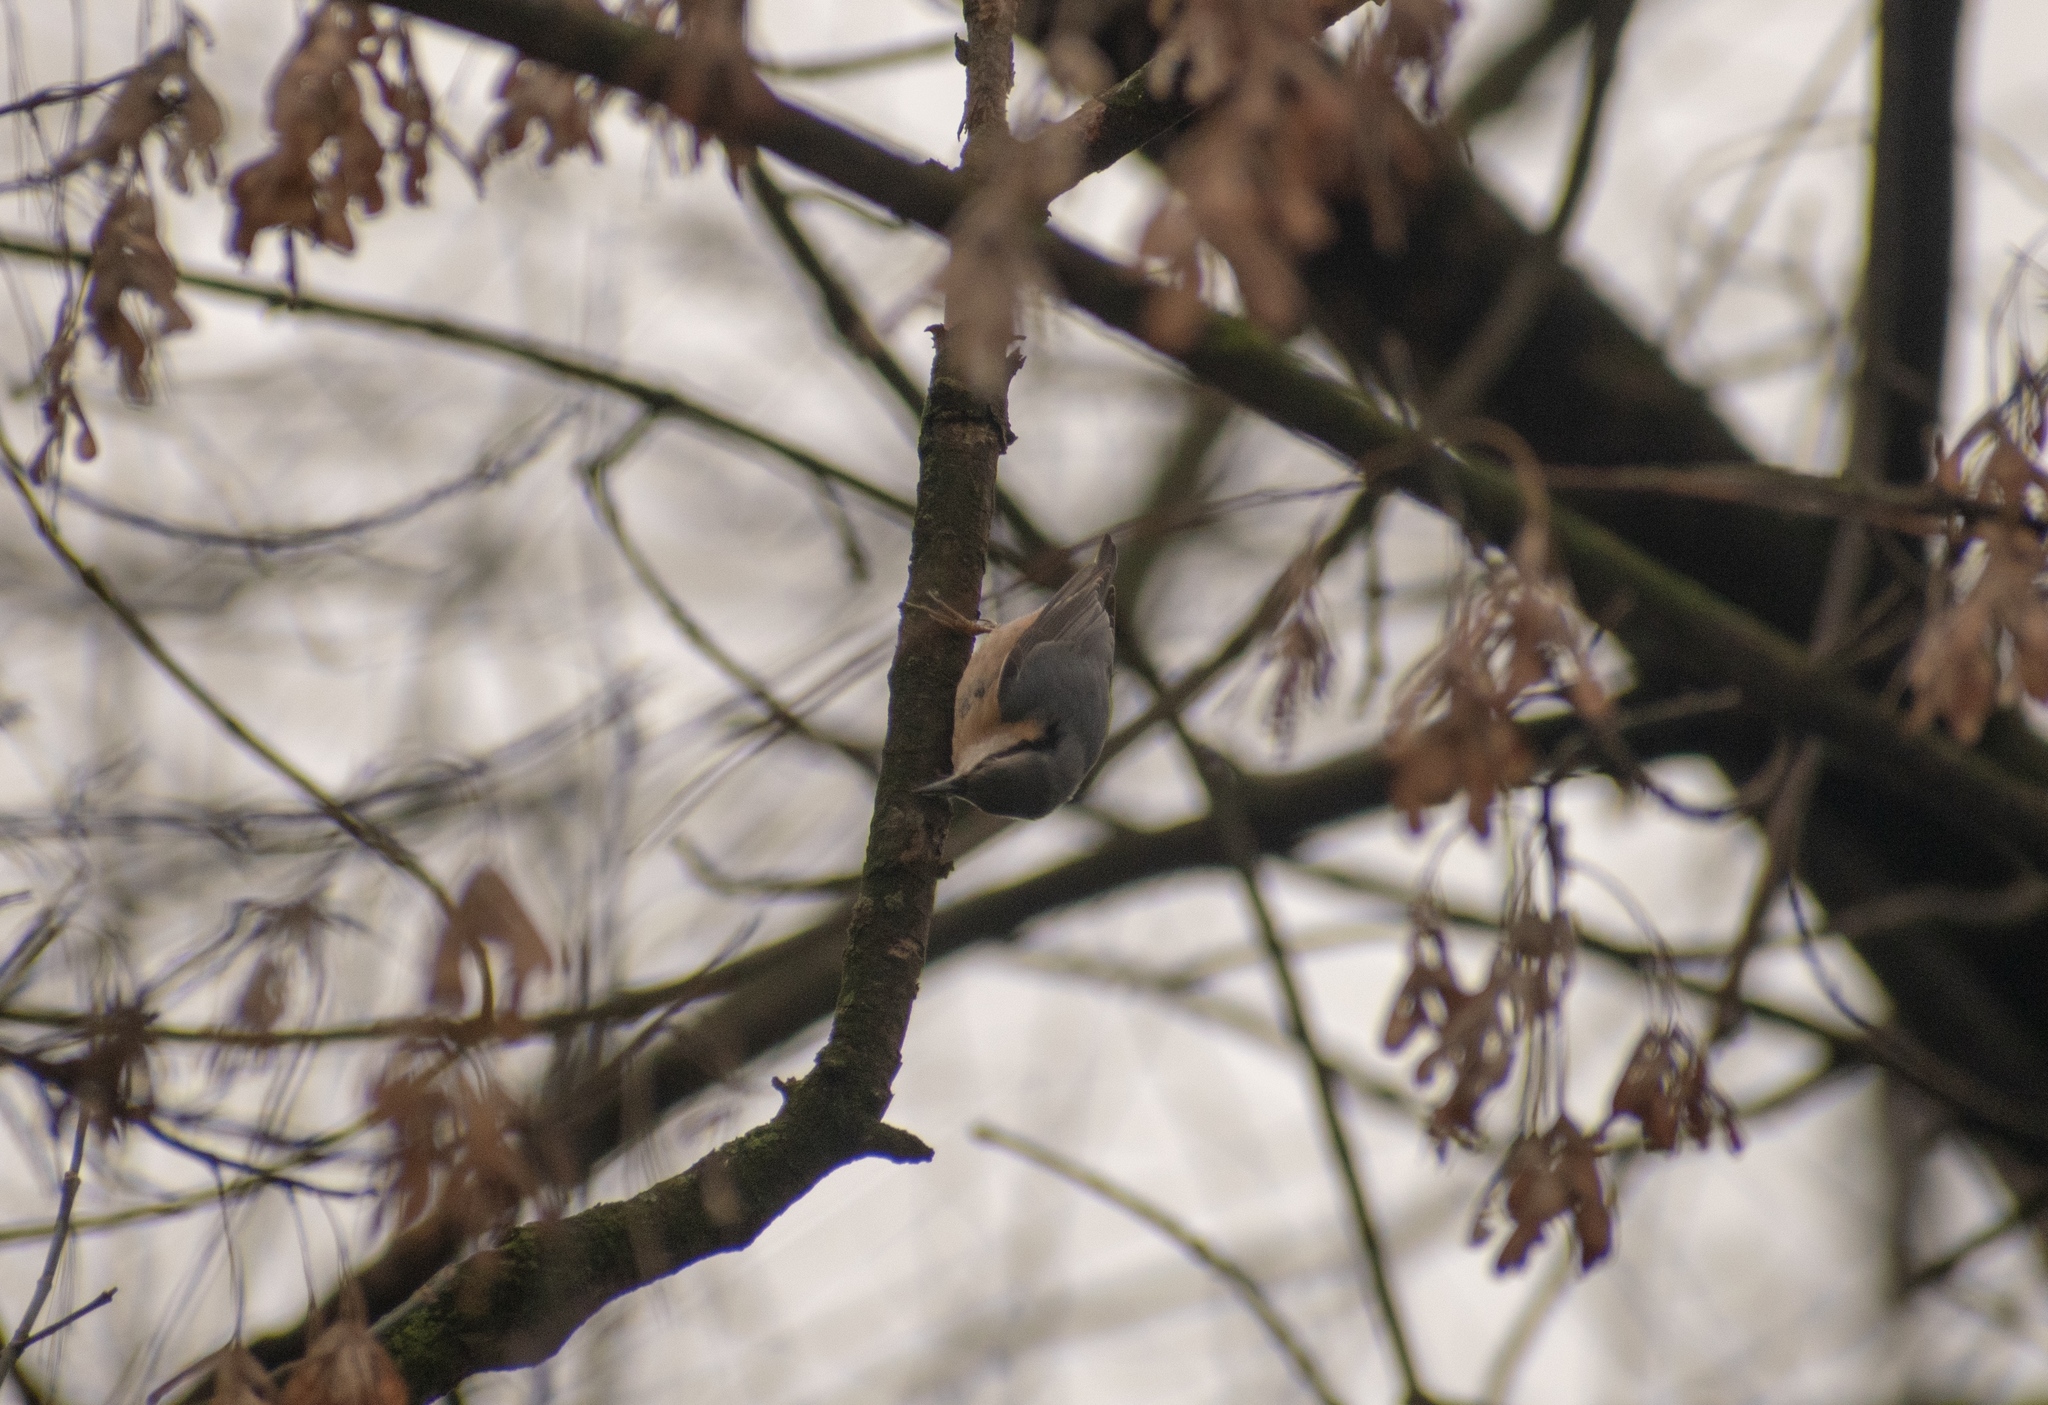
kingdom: Animalia
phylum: Chordata
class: Aves
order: Passeriformes
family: Sittidae
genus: Sitta
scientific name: Sitta europaea
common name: Eurasian nuthatch
